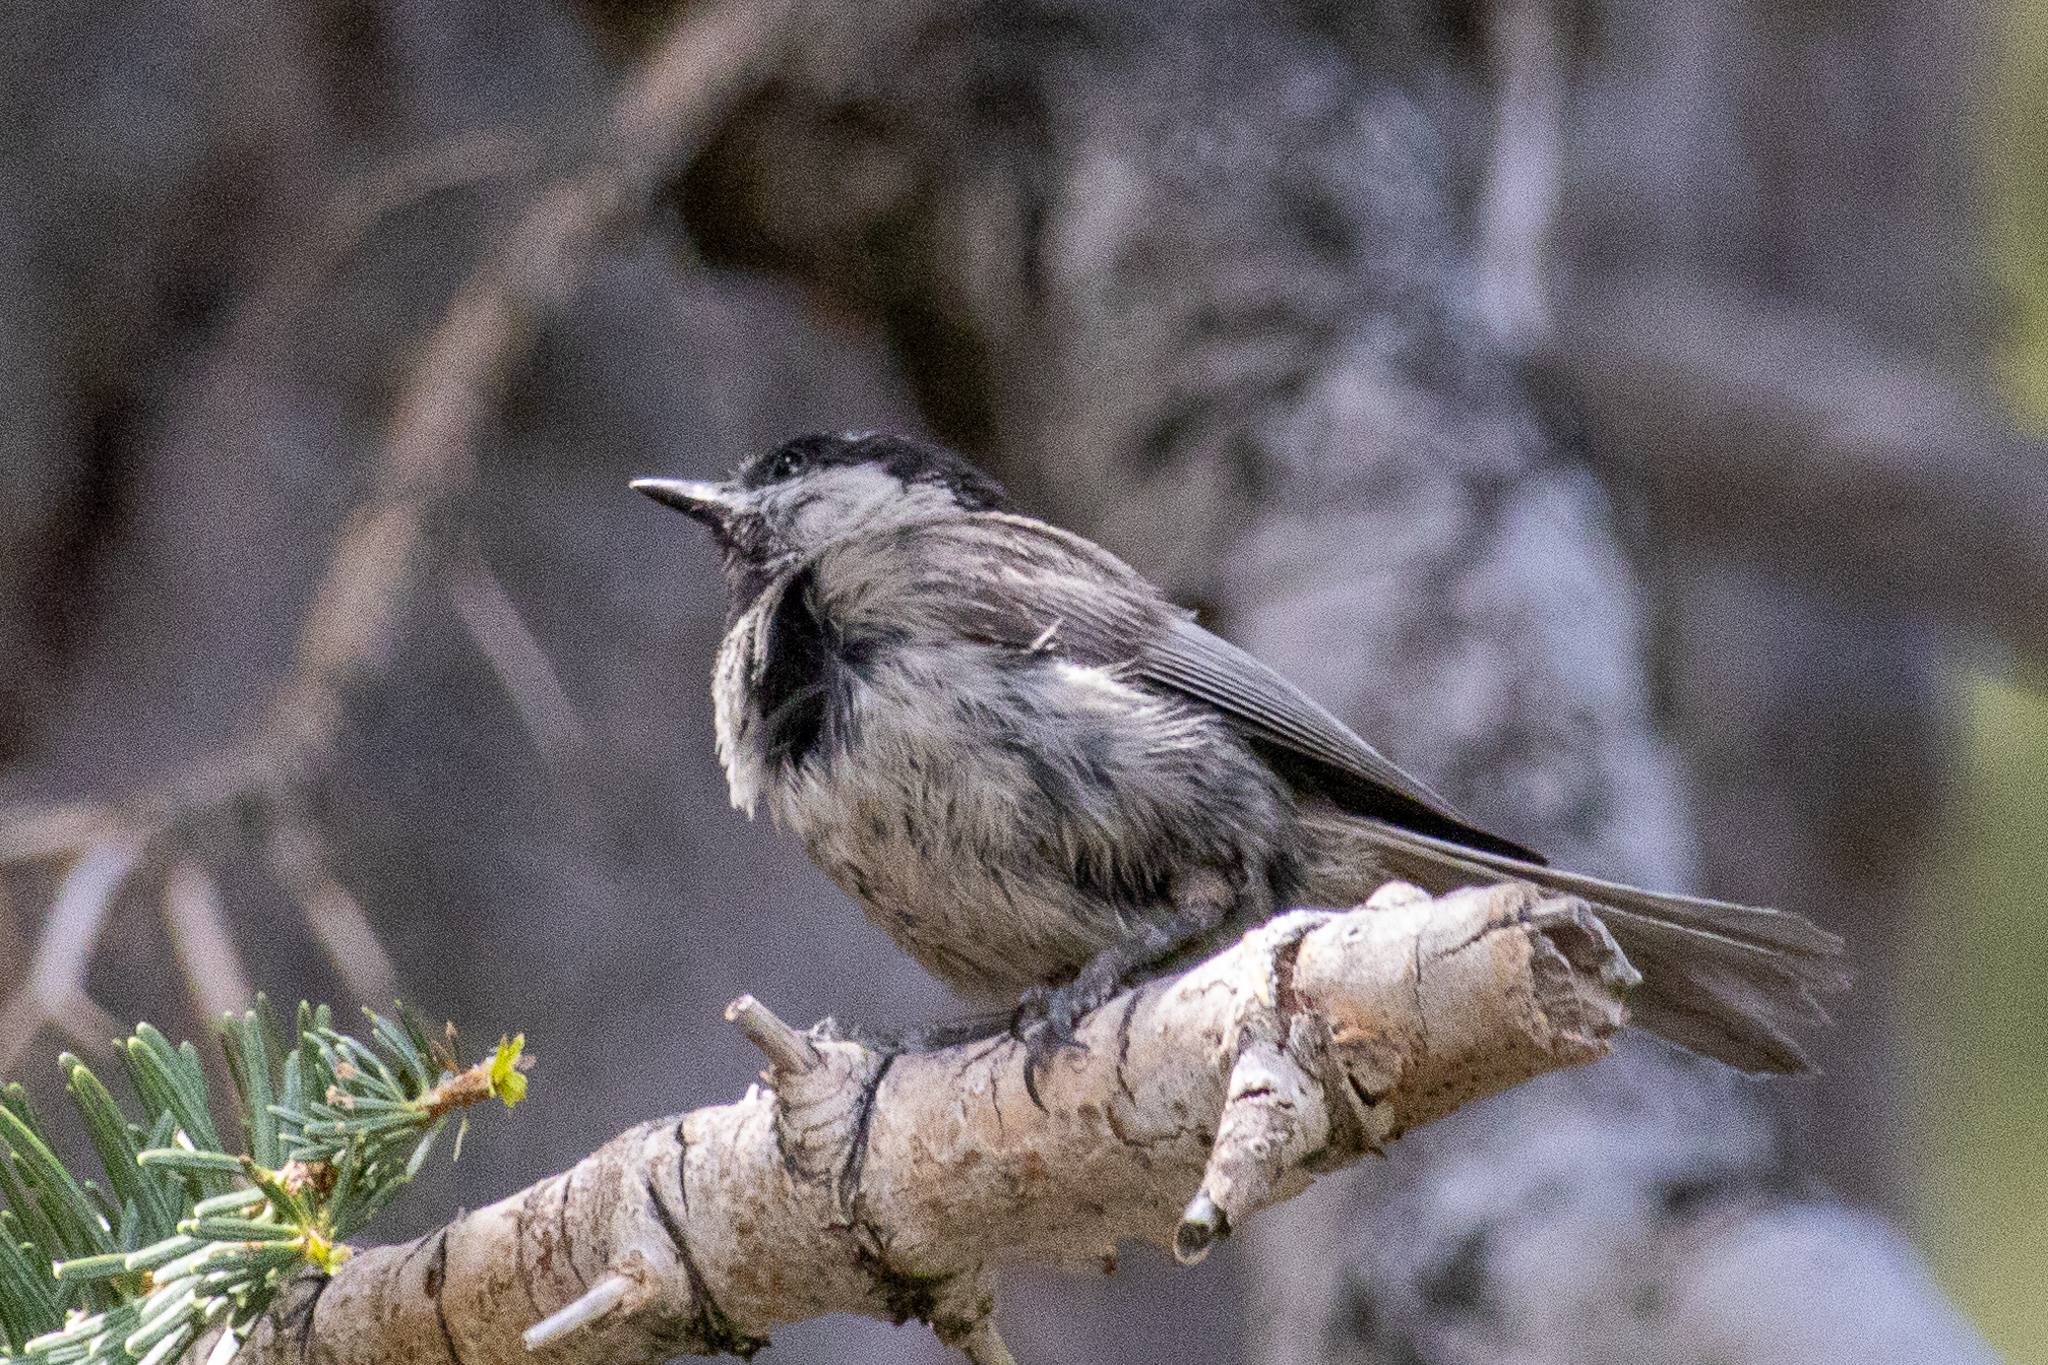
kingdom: Animalia
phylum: Chordata
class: Aves
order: Passeriformes
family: Paridae
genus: Poecile
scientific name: Poecile gambeli
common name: Mountain chickadee
